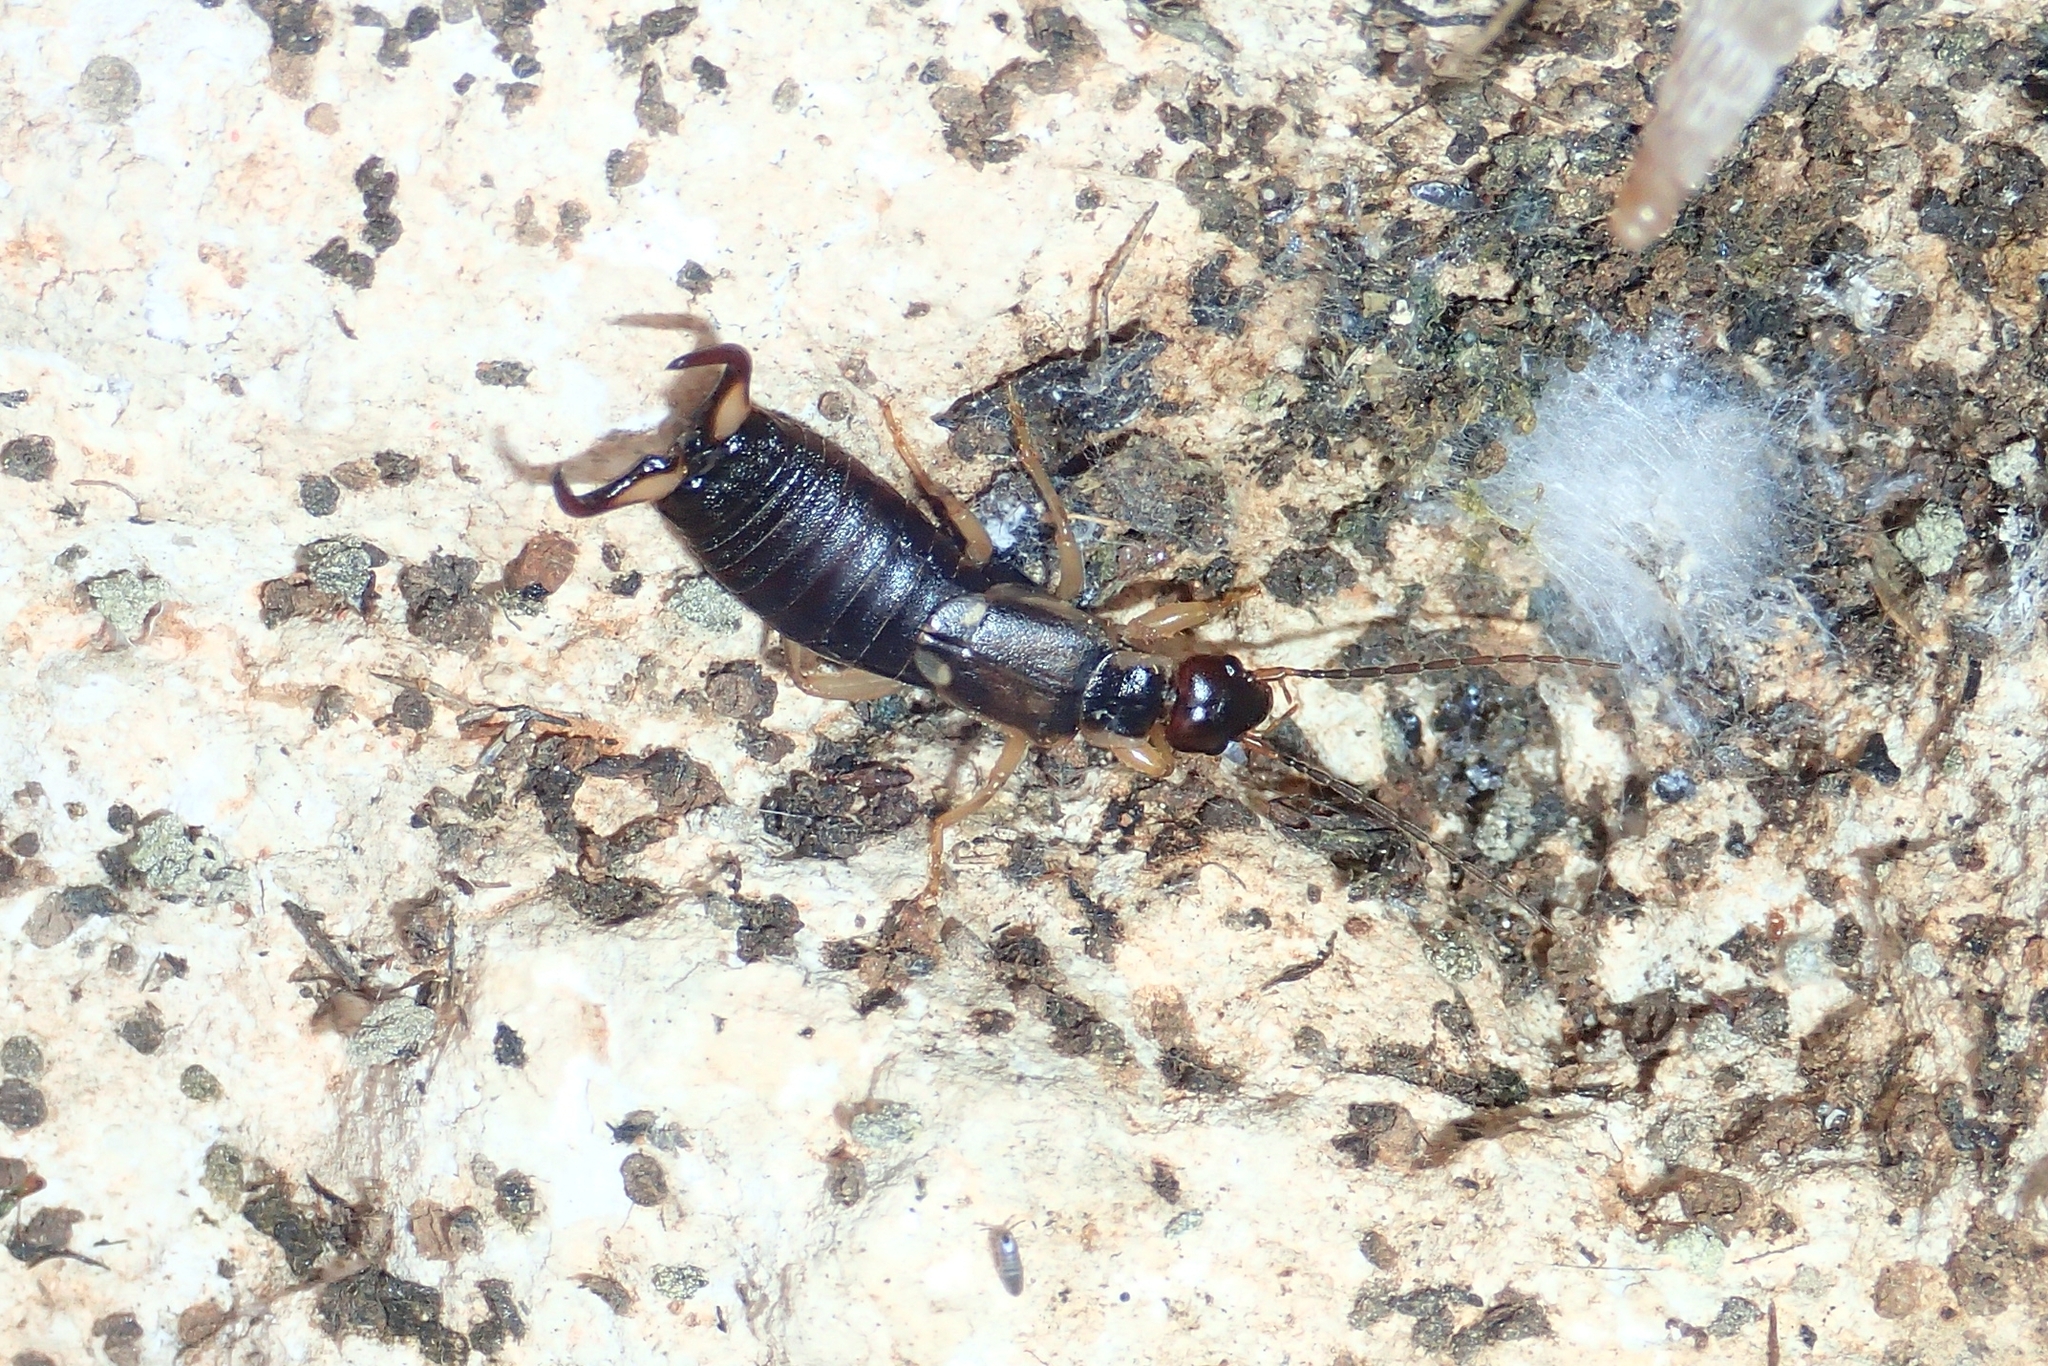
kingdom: Animalia
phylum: Arthropoda
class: Insecta
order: Dermaptera
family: Forficulidae
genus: Forficula
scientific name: Forficula lurida
